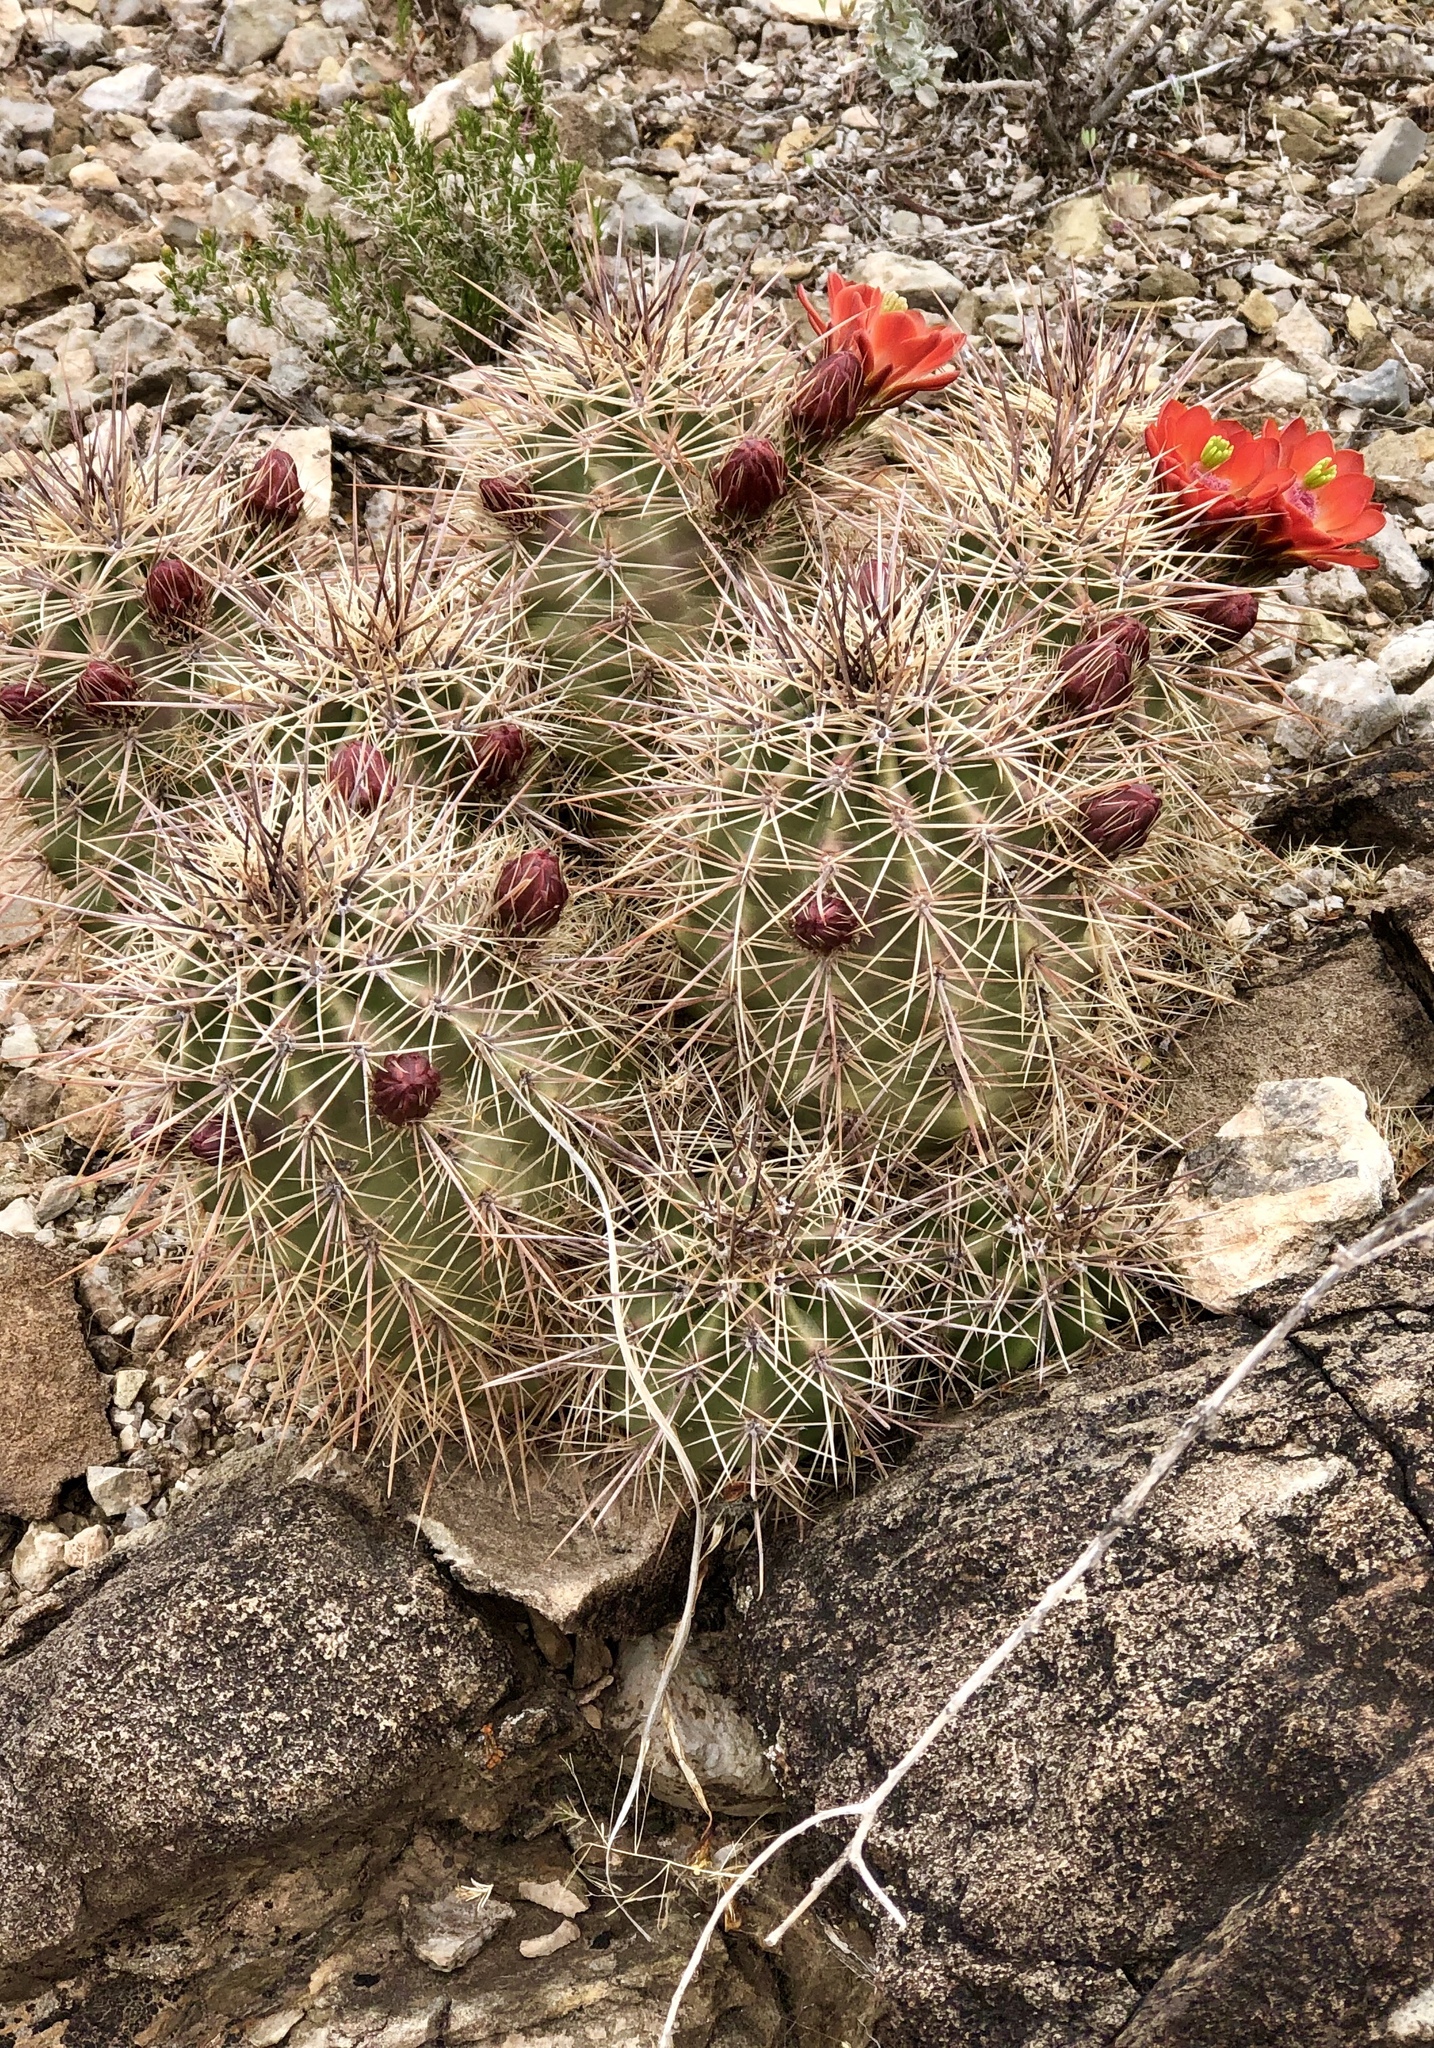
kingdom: Plantae
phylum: Tracheophyta
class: Magnoliopsida
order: Caryophyllales
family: Cactaceae
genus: Echinocereus
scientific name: Echinocereus coccineus
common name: Scarlet hedgehog cactus
